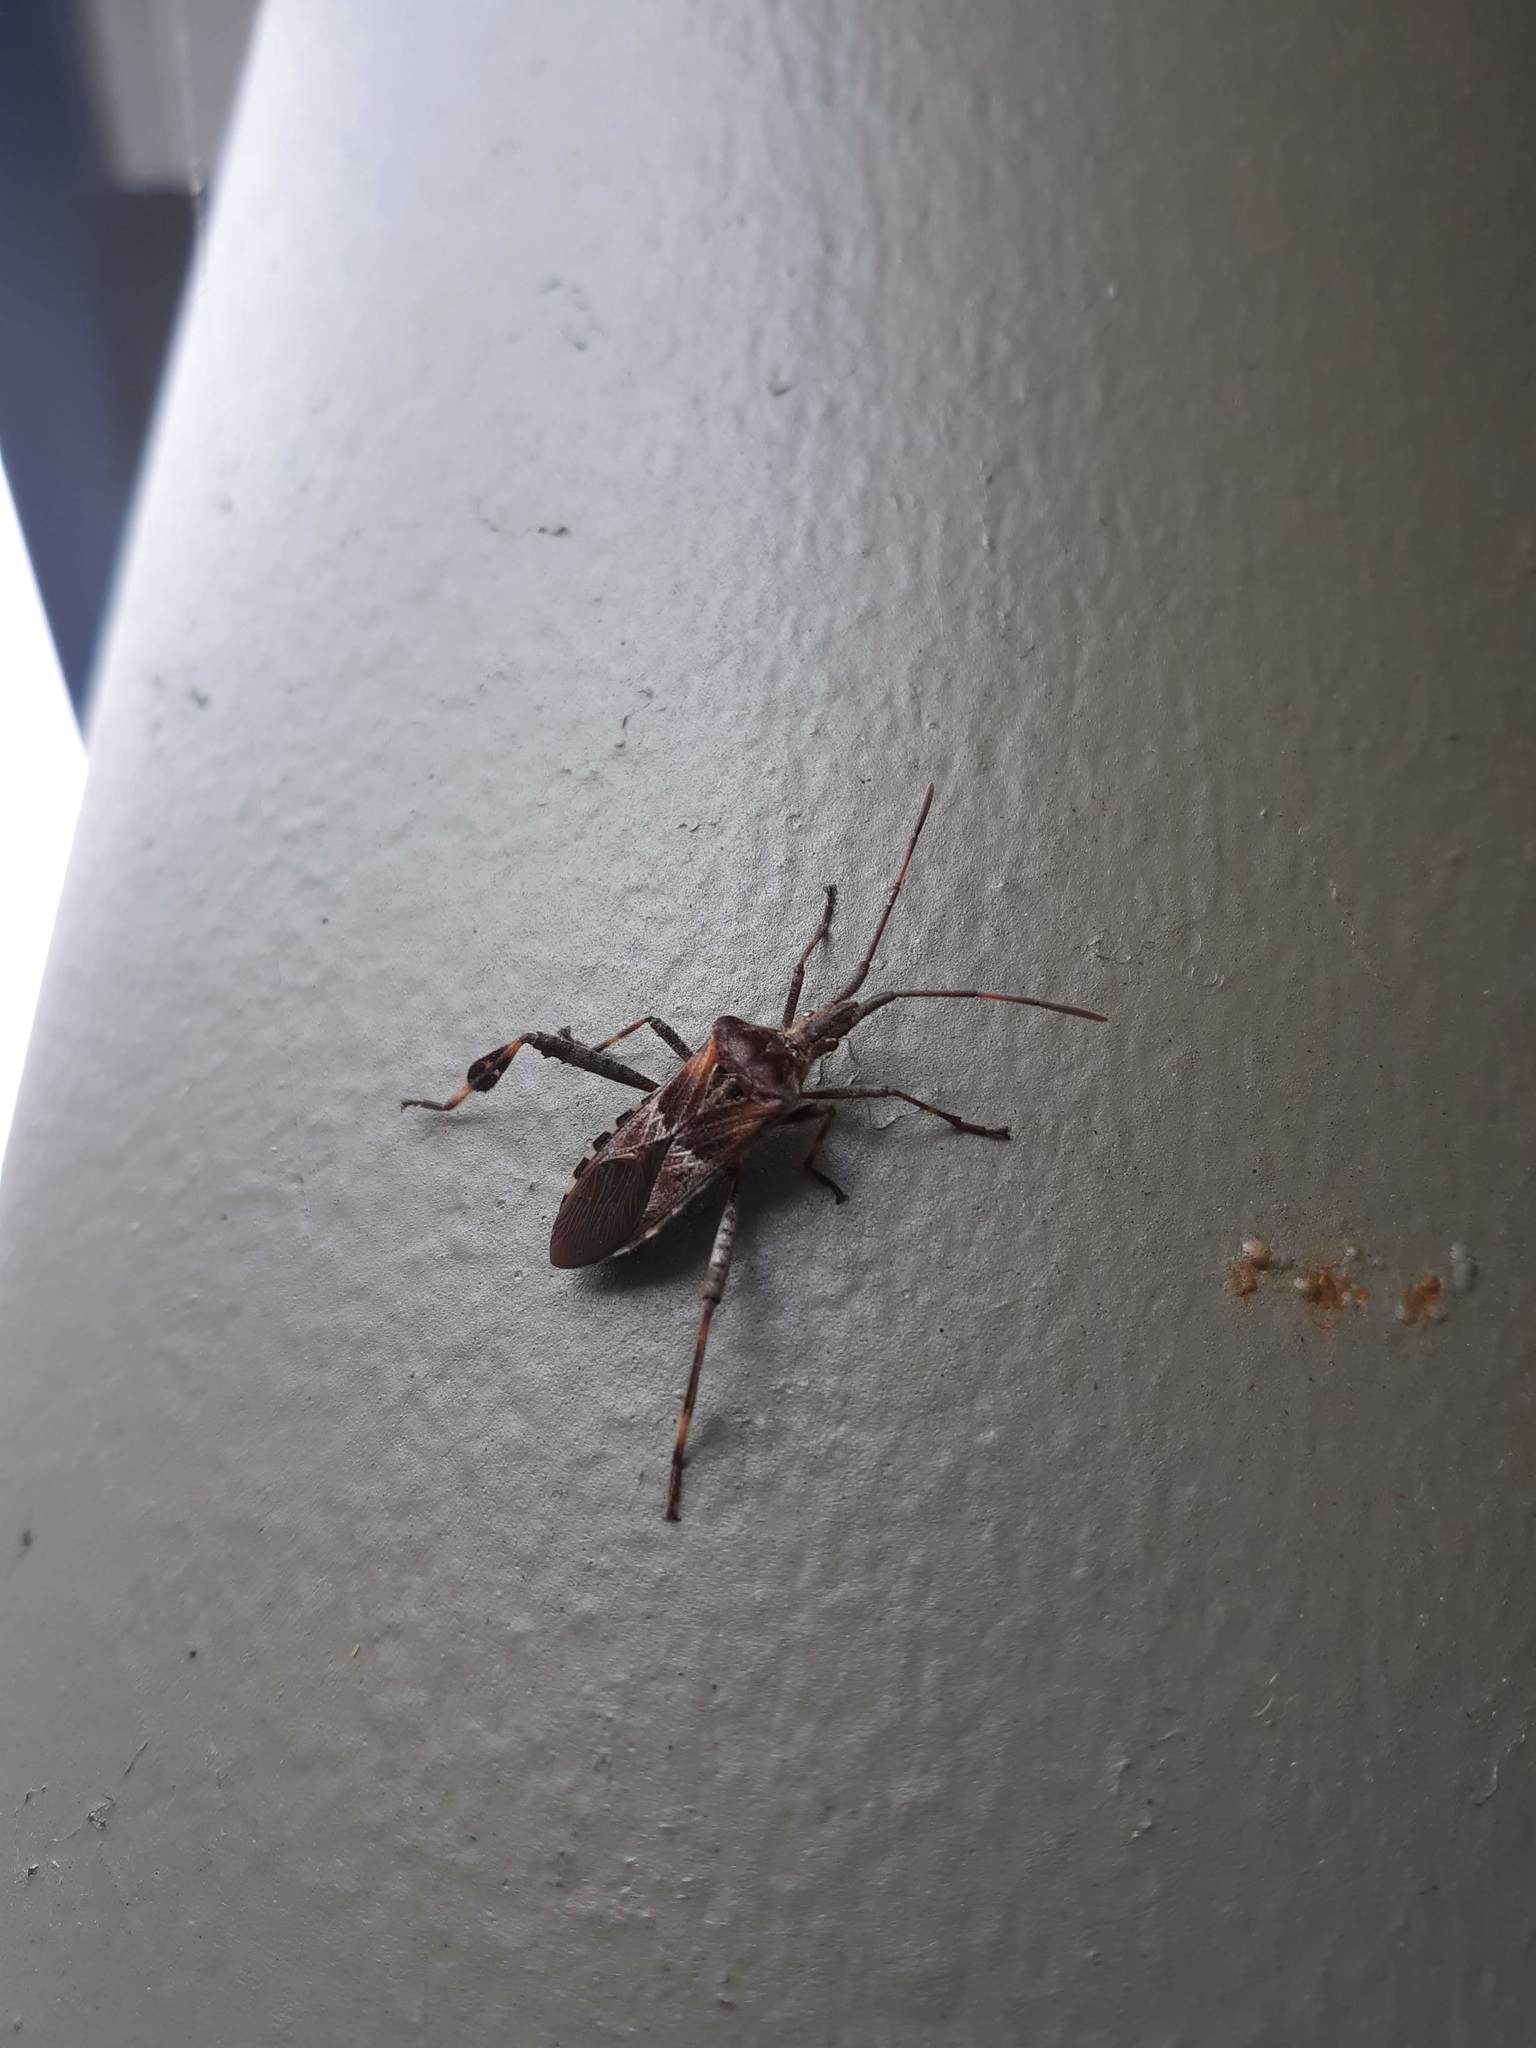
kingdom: Animalia
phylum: Arthropoda
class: Insecta
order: Hemiptera
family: Coreidae
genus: Leptoglossus
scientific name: Leptoglossus occidentalis
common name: Western conifer-seed bug
